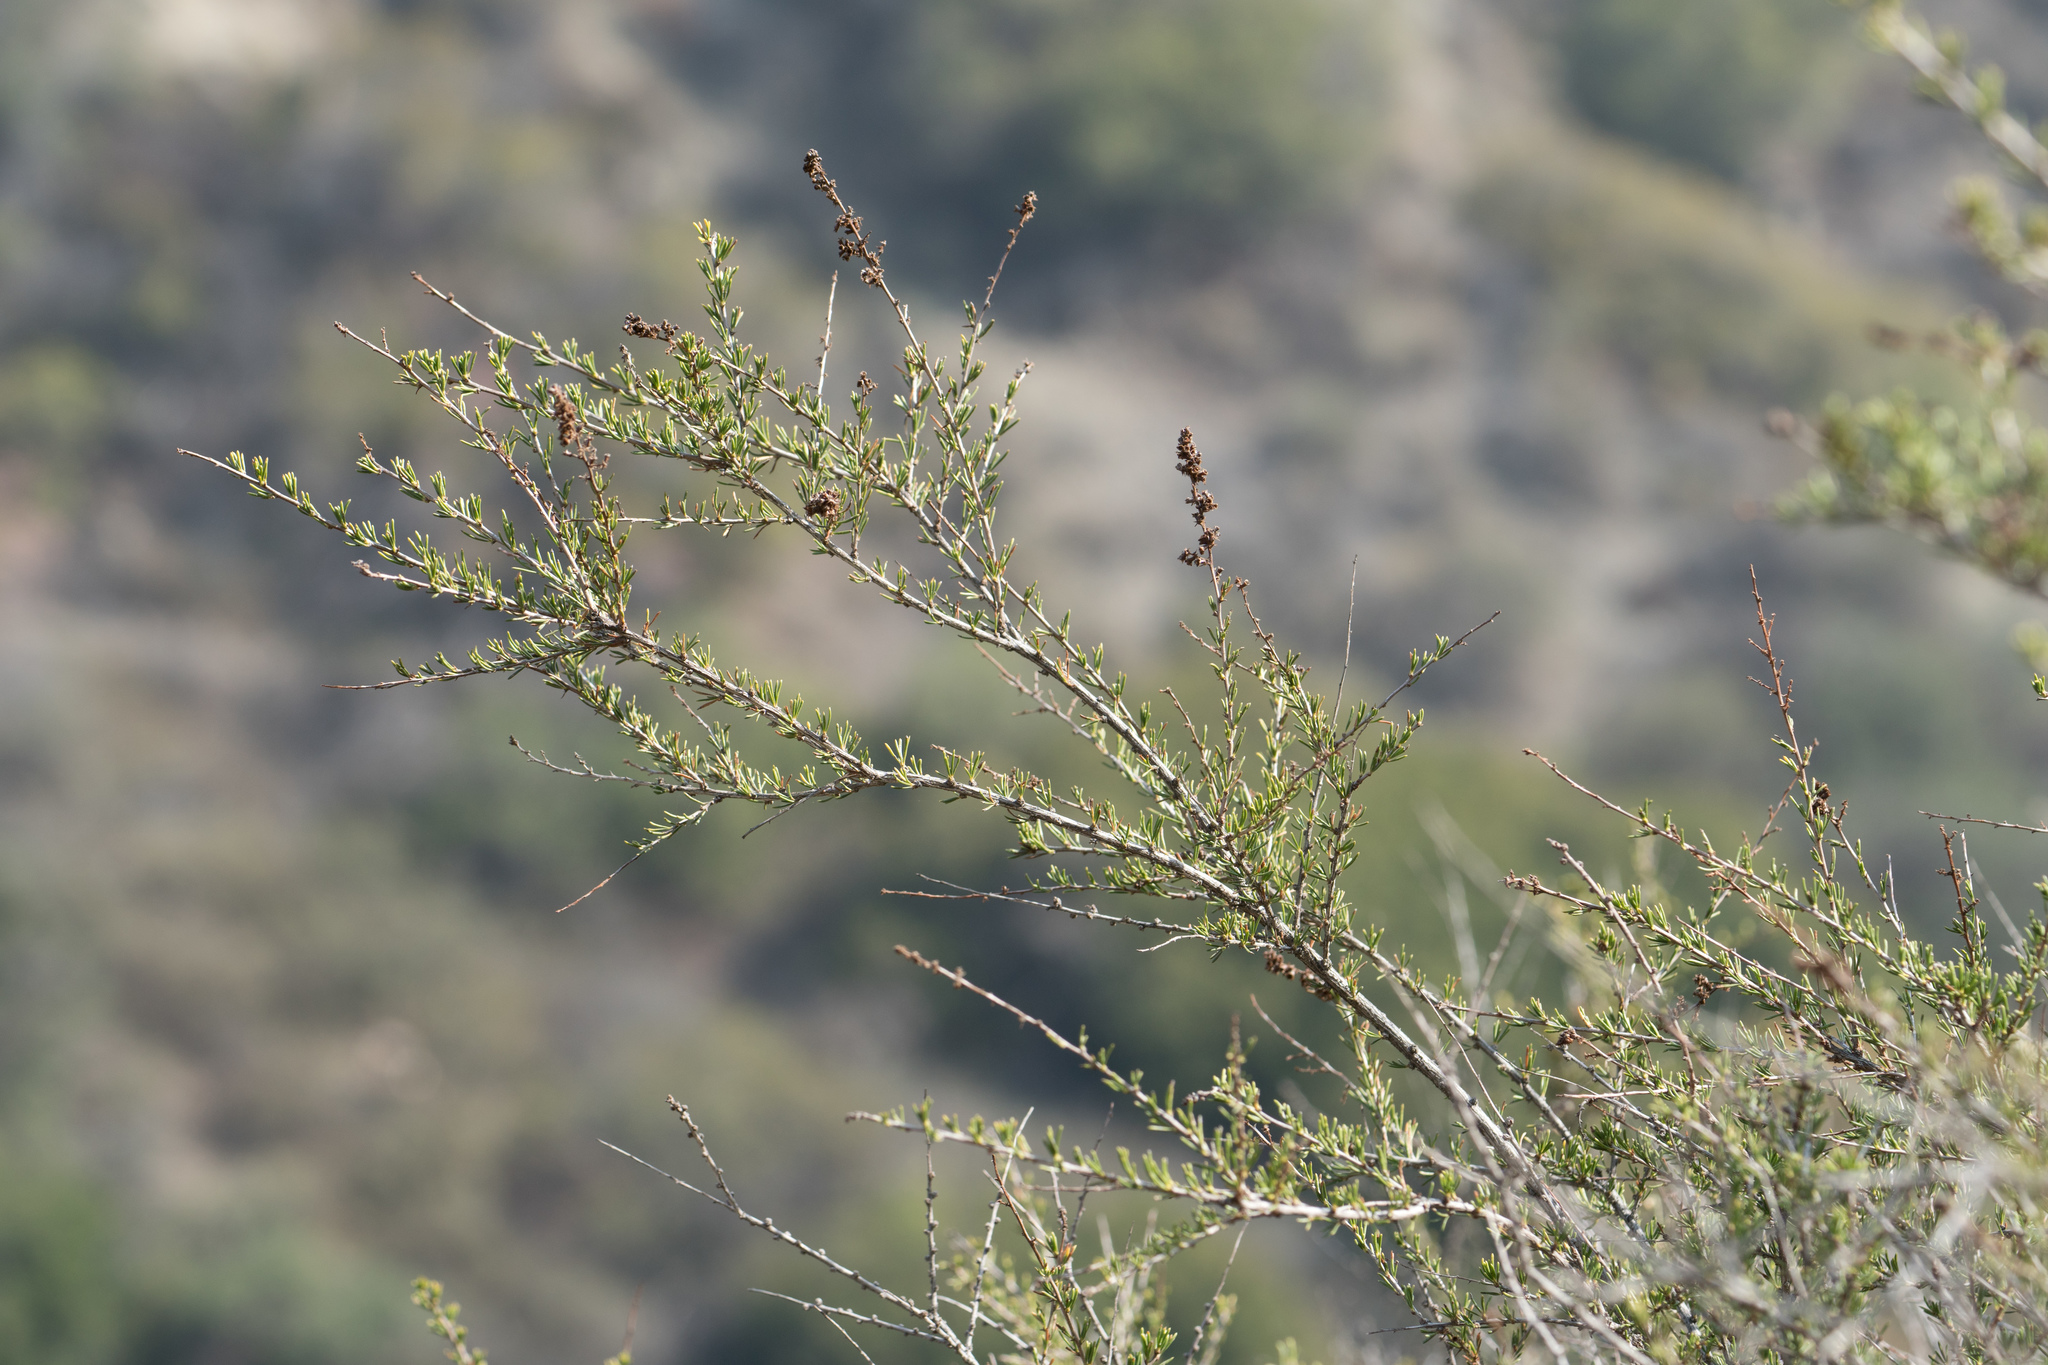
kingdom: Plantae
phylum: Tracheophyta
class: Magnoliopsida
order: Rosales
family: Rosaceae
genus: Adenostoma
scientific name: Adenostoma fasciculatum
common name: Chamise
